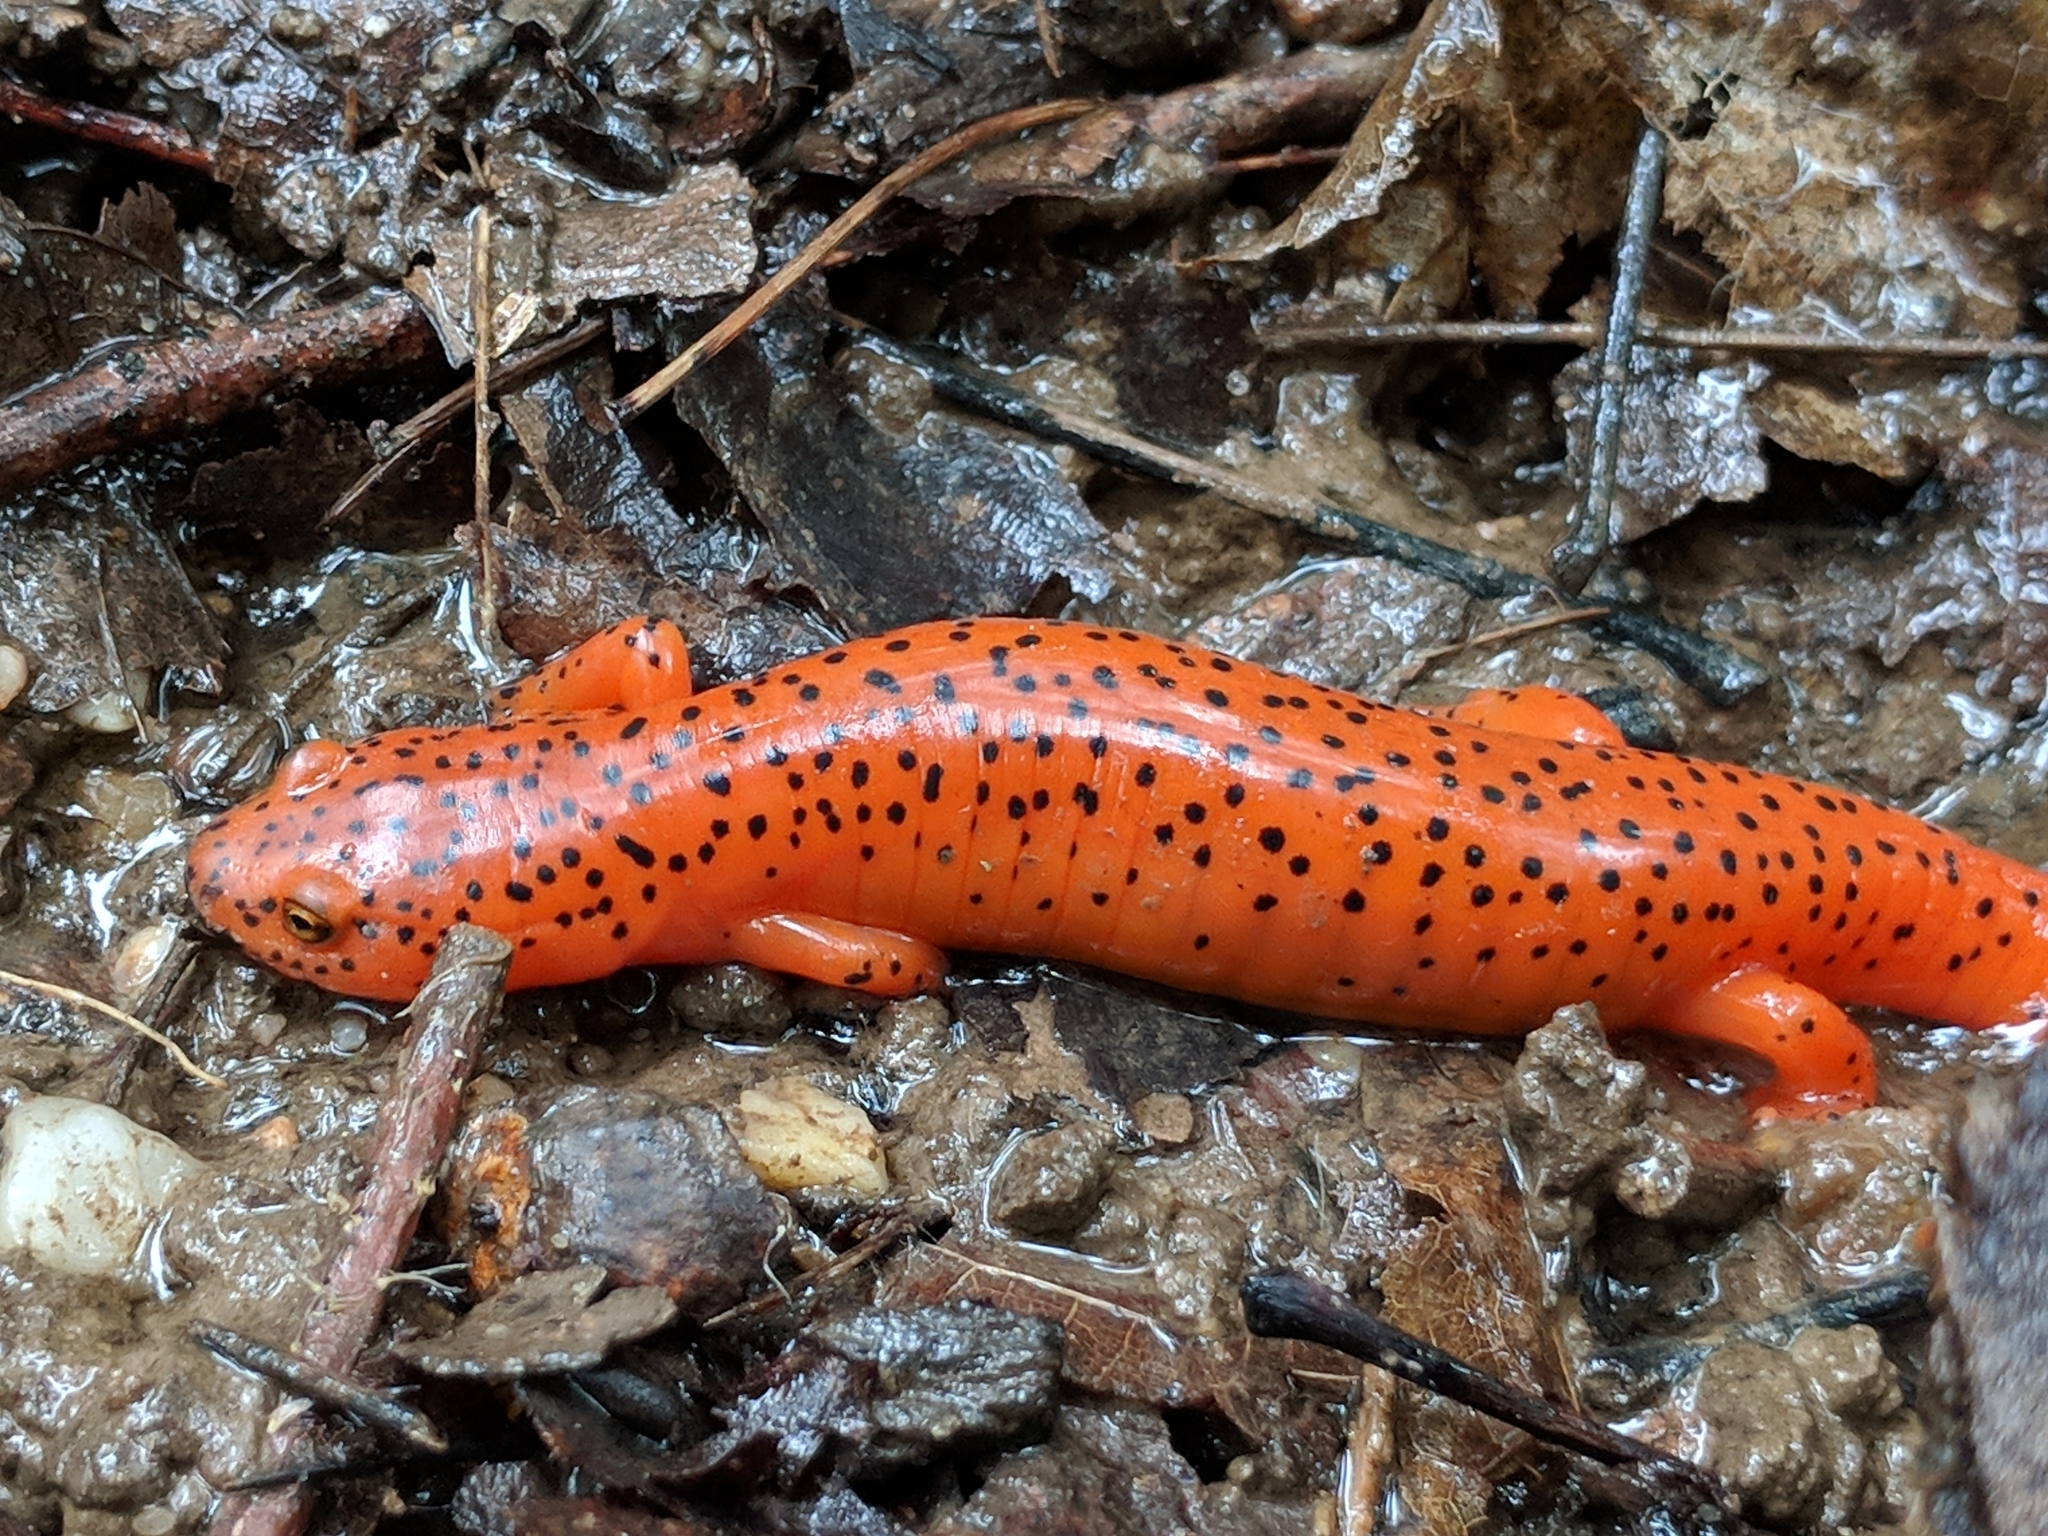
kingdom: Animalia
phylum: Chordata
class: Amphibia
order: Caudata
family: Plethodontidae
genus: Pseudotriton
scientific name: Pseudotriton ruber
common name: Red salamander
